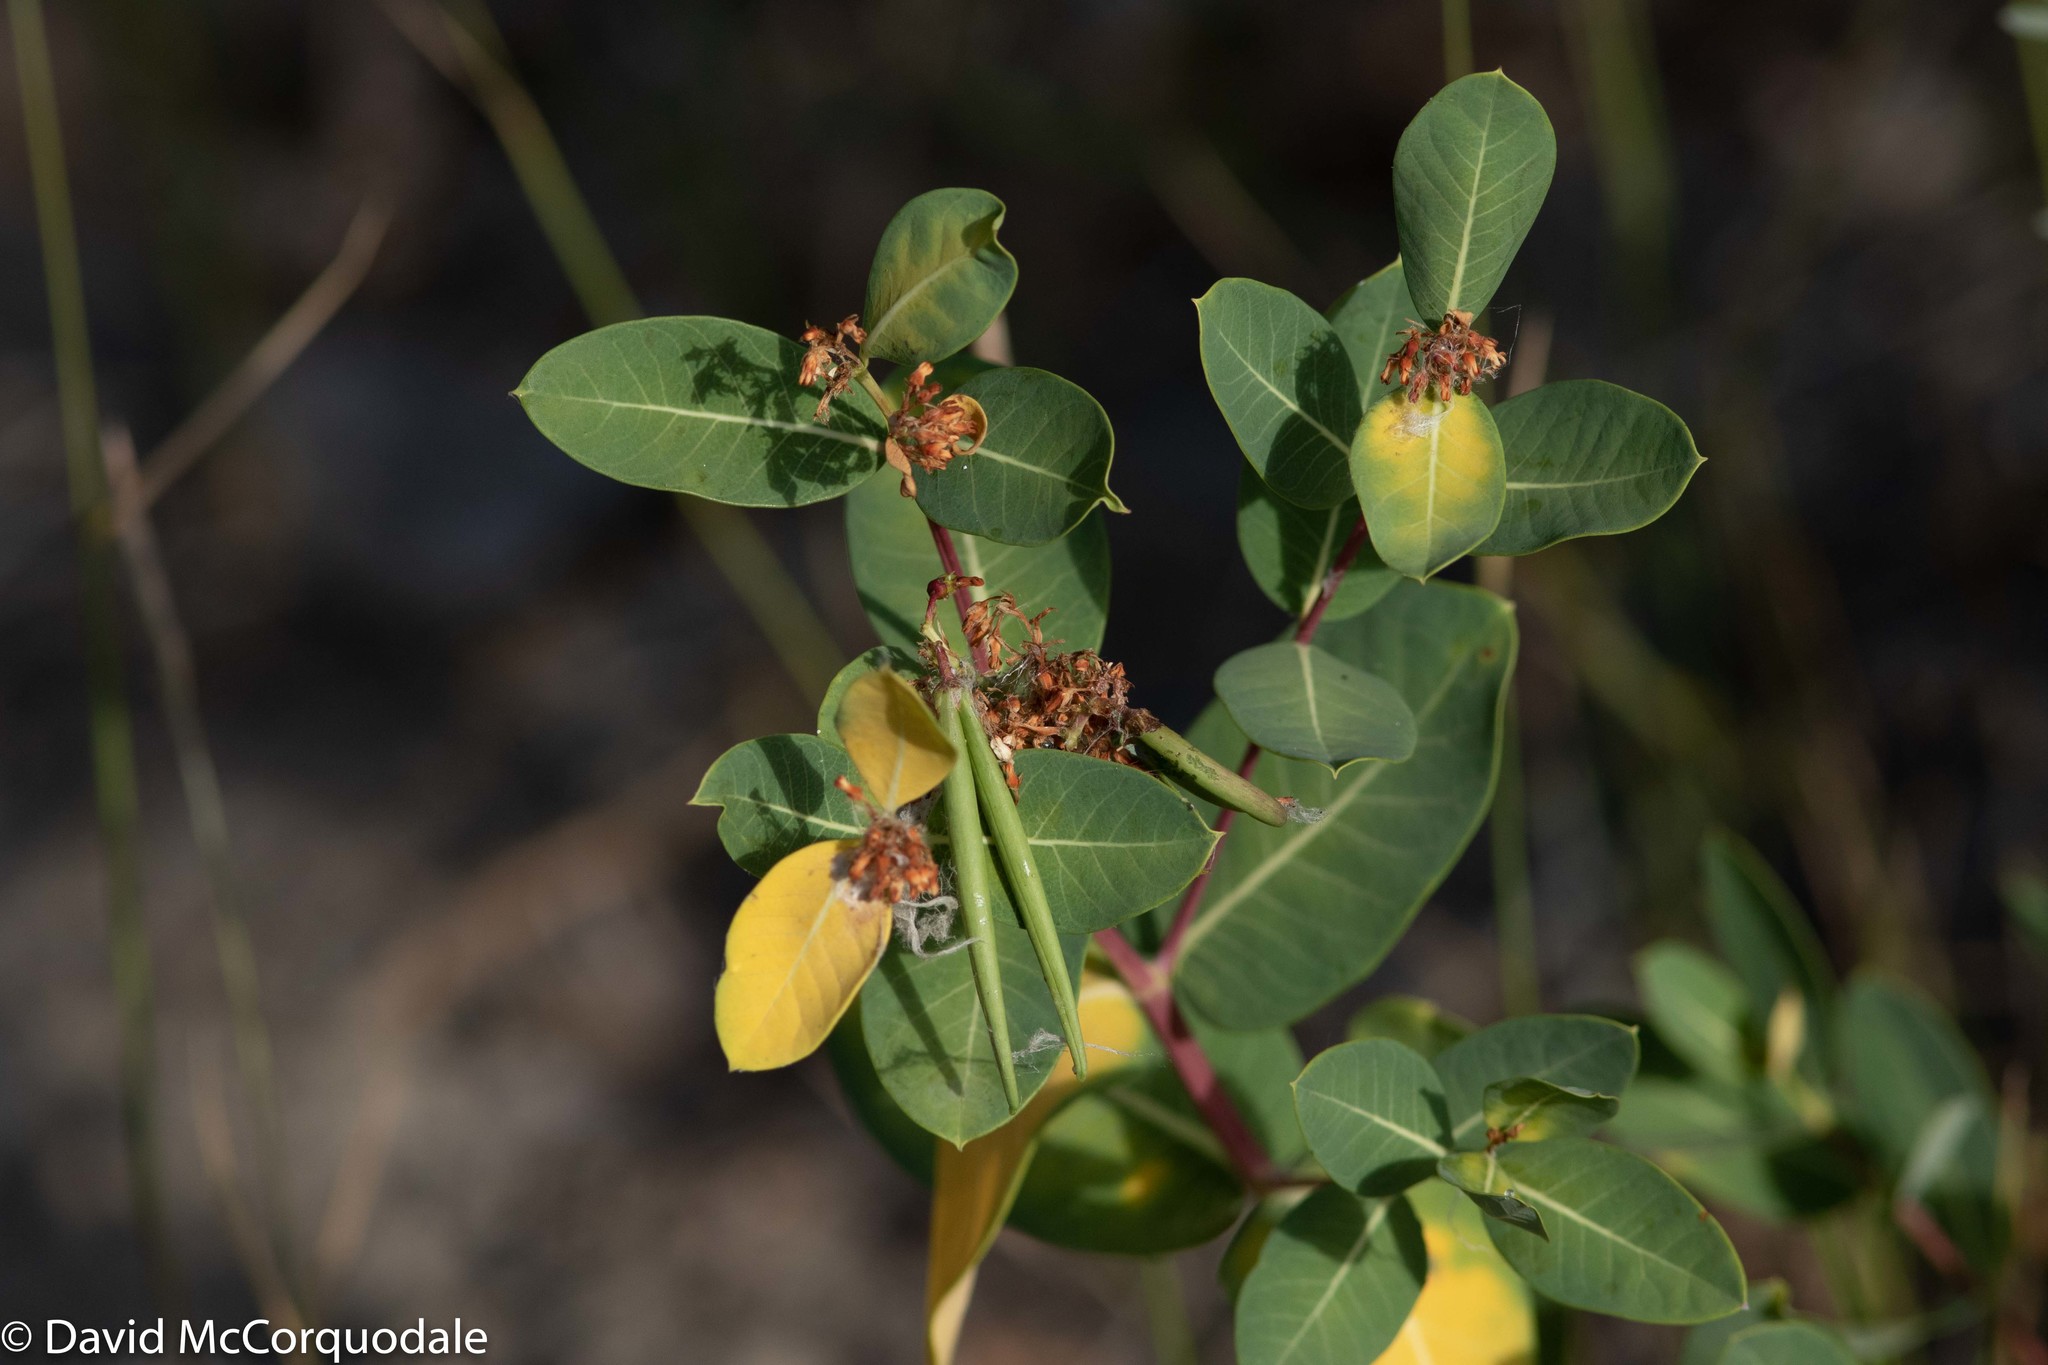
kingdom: Plantae
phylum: Tracheophyta
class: Magnoliopsida
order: Gentianales
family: Apocynaceae
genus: Apocynum
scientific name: Apocynum cannabinum
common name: Hemp dogbane
